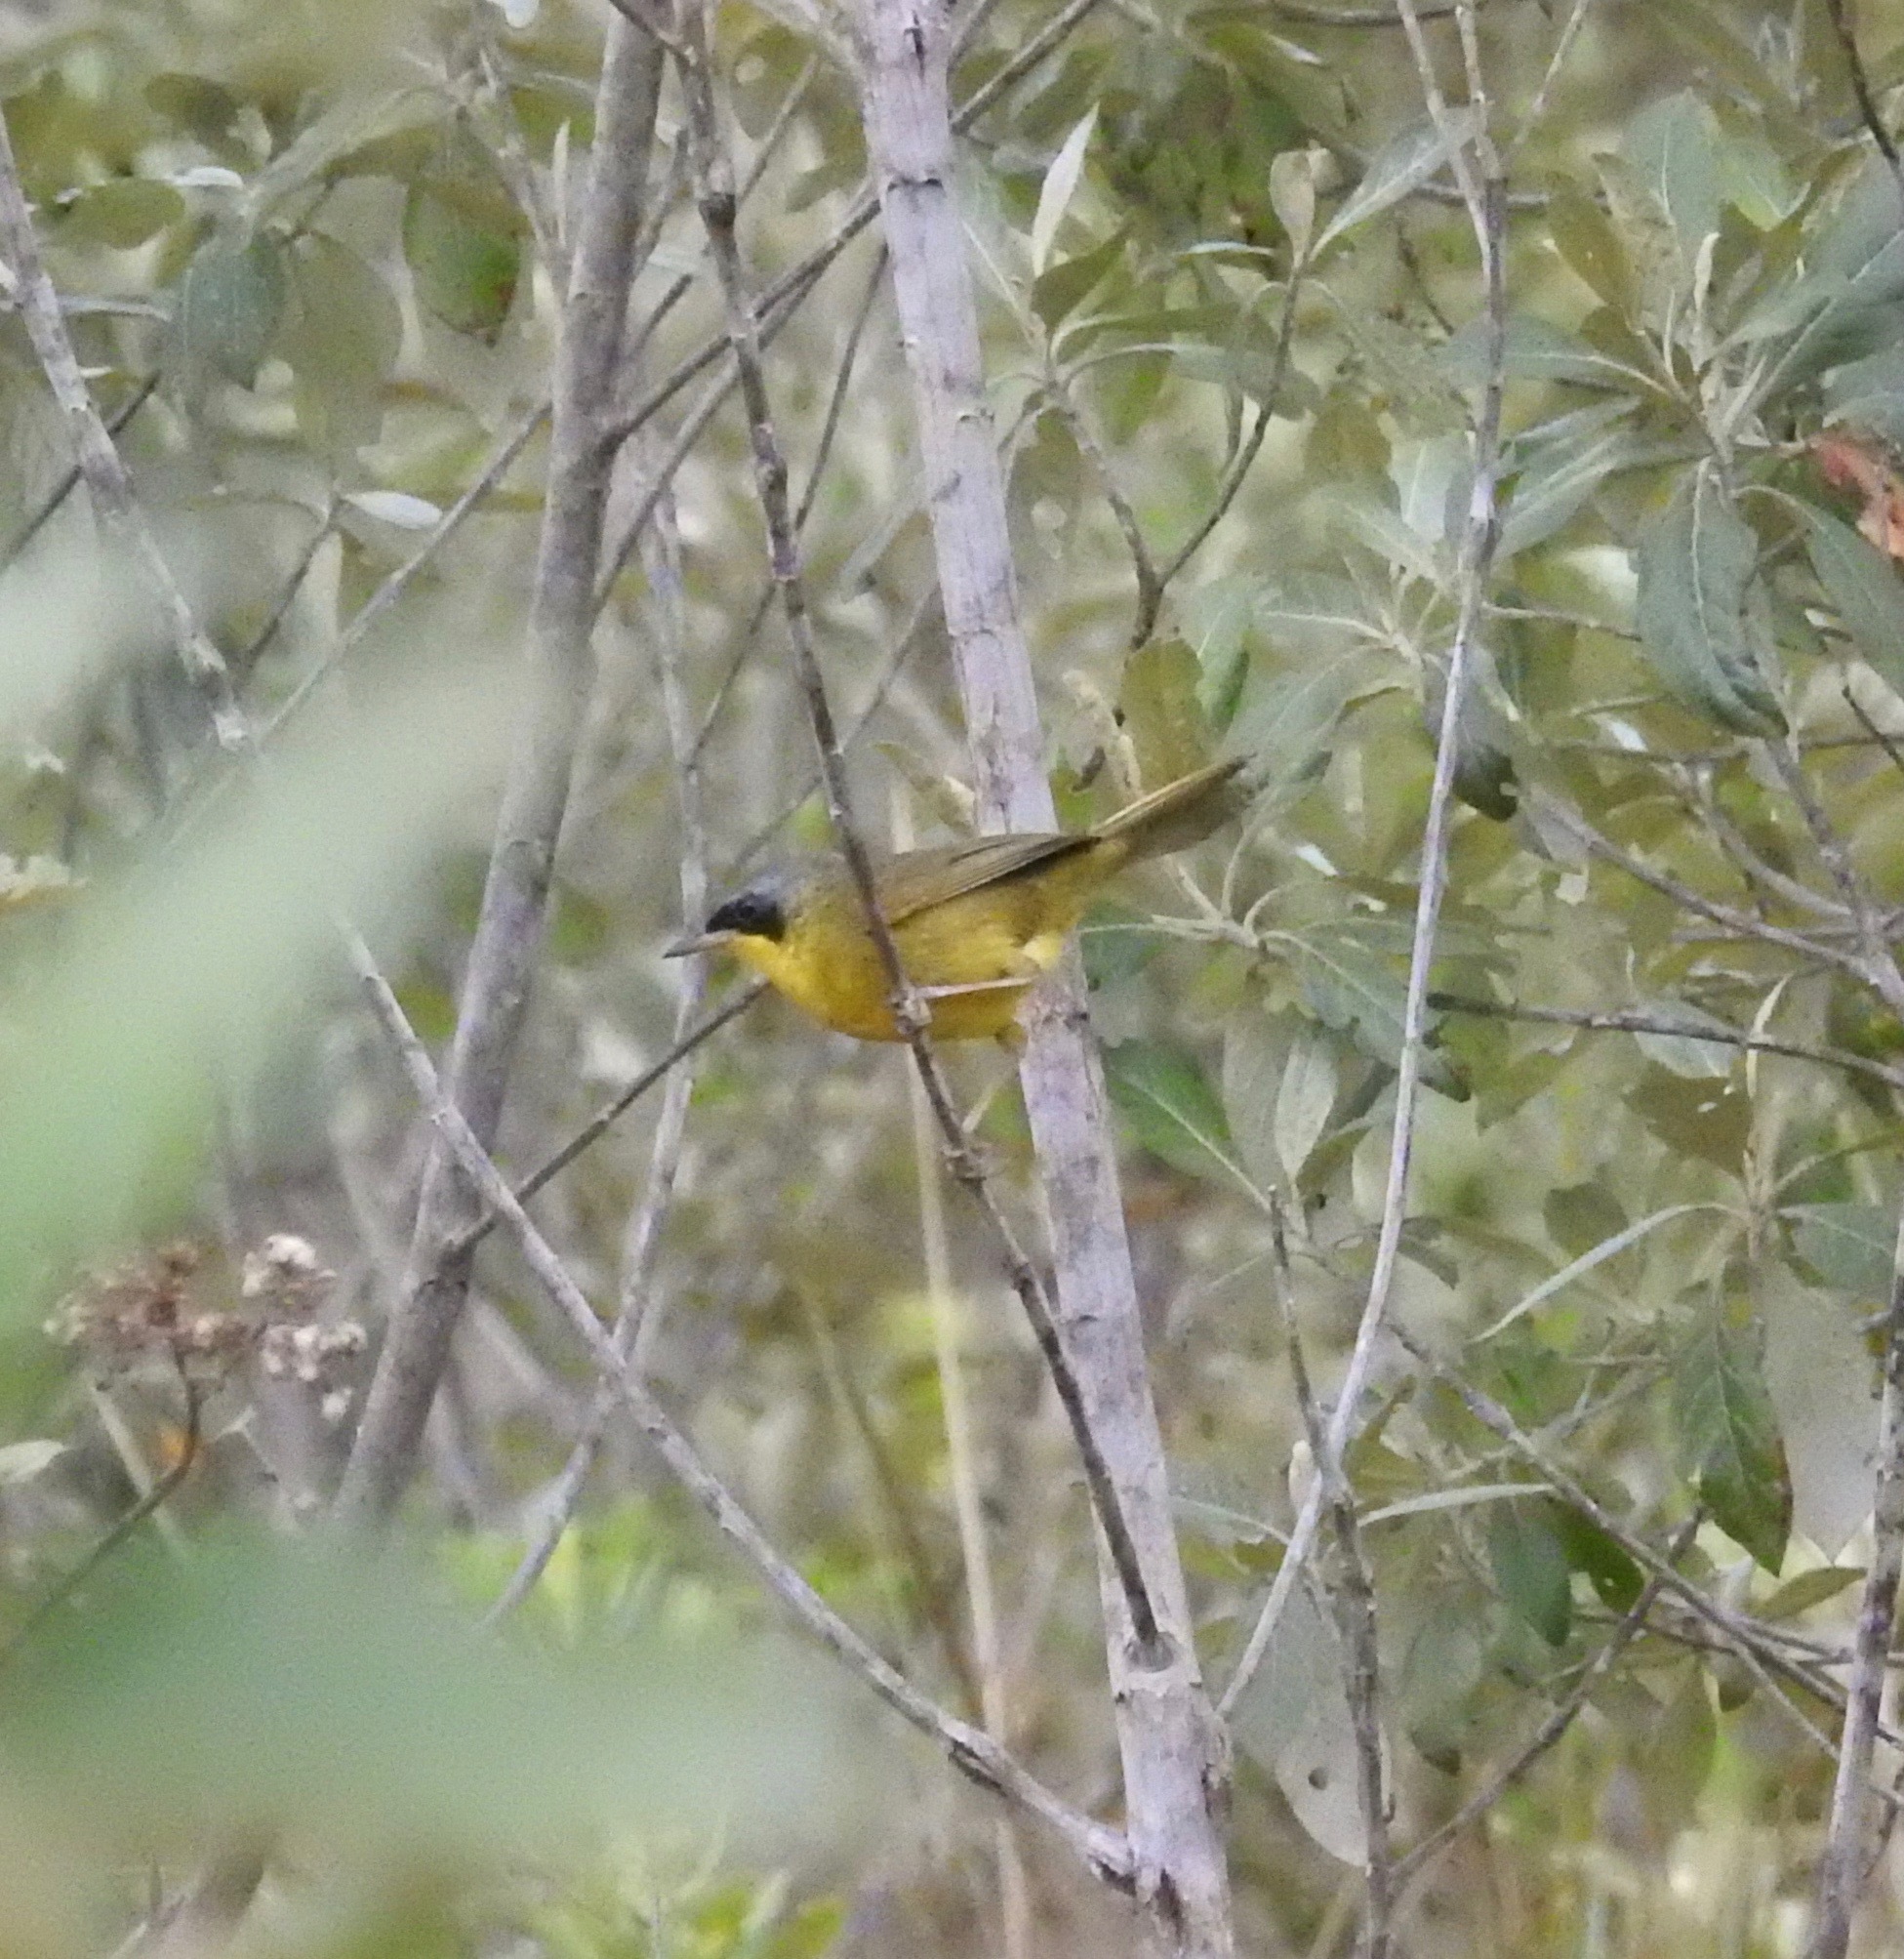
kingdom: Animalia
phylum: Chordata
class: Aves
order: Passeriformes
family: Parulidae
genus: Geothlypis
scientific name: Geothlypis velata
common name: Southern yellowthroat
